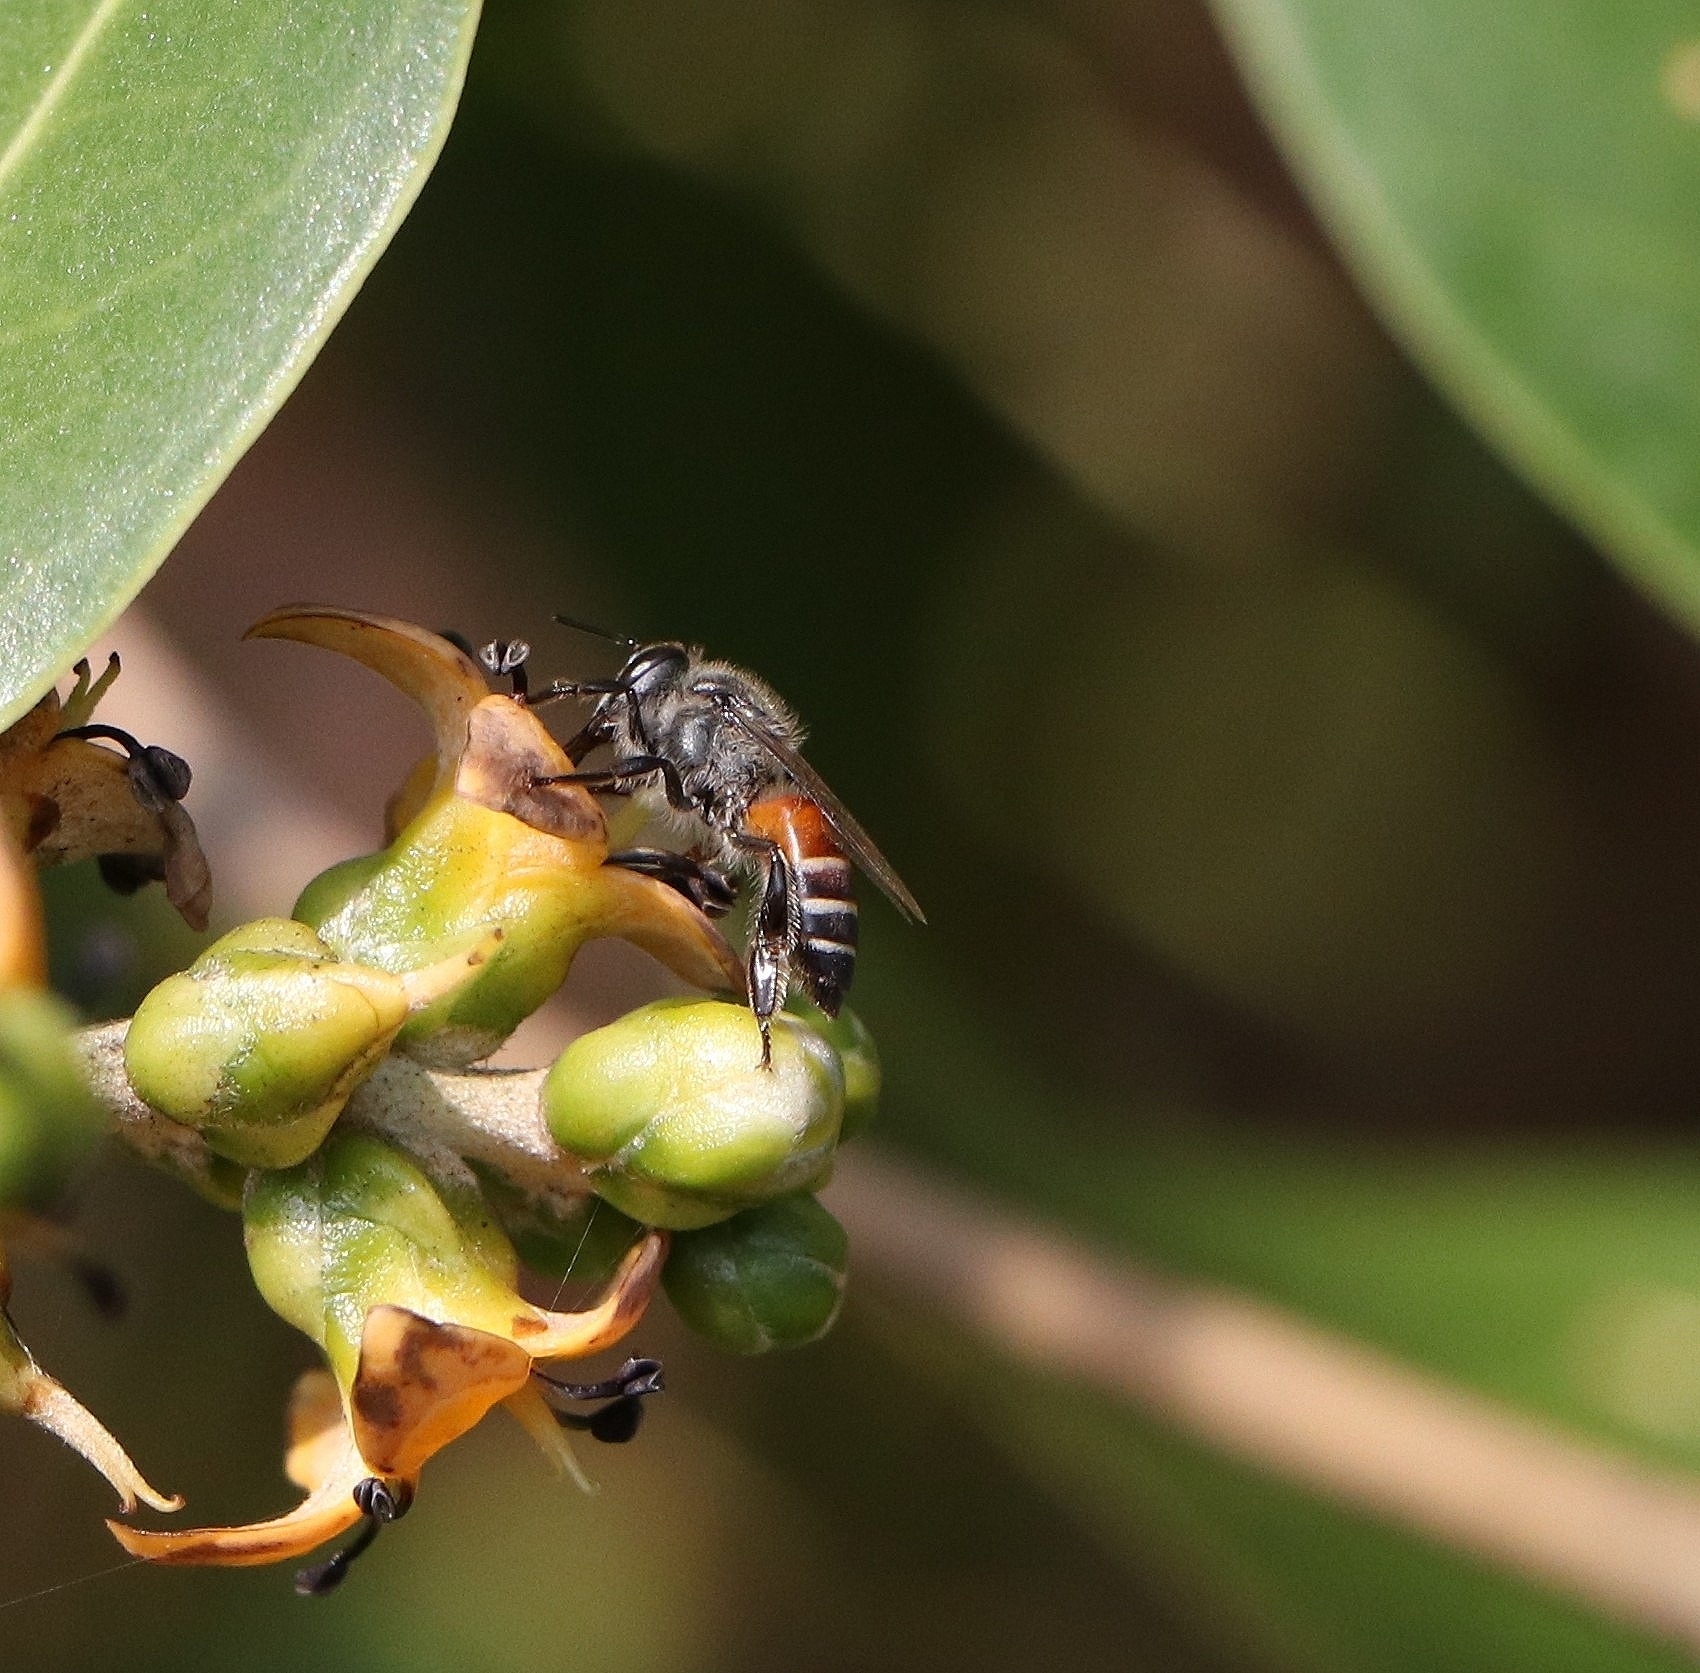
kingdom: Animalia
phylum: Arthropoda
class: Insecta
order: Hymenoptera
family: Apidae
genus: Apis
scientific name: Apis florea
